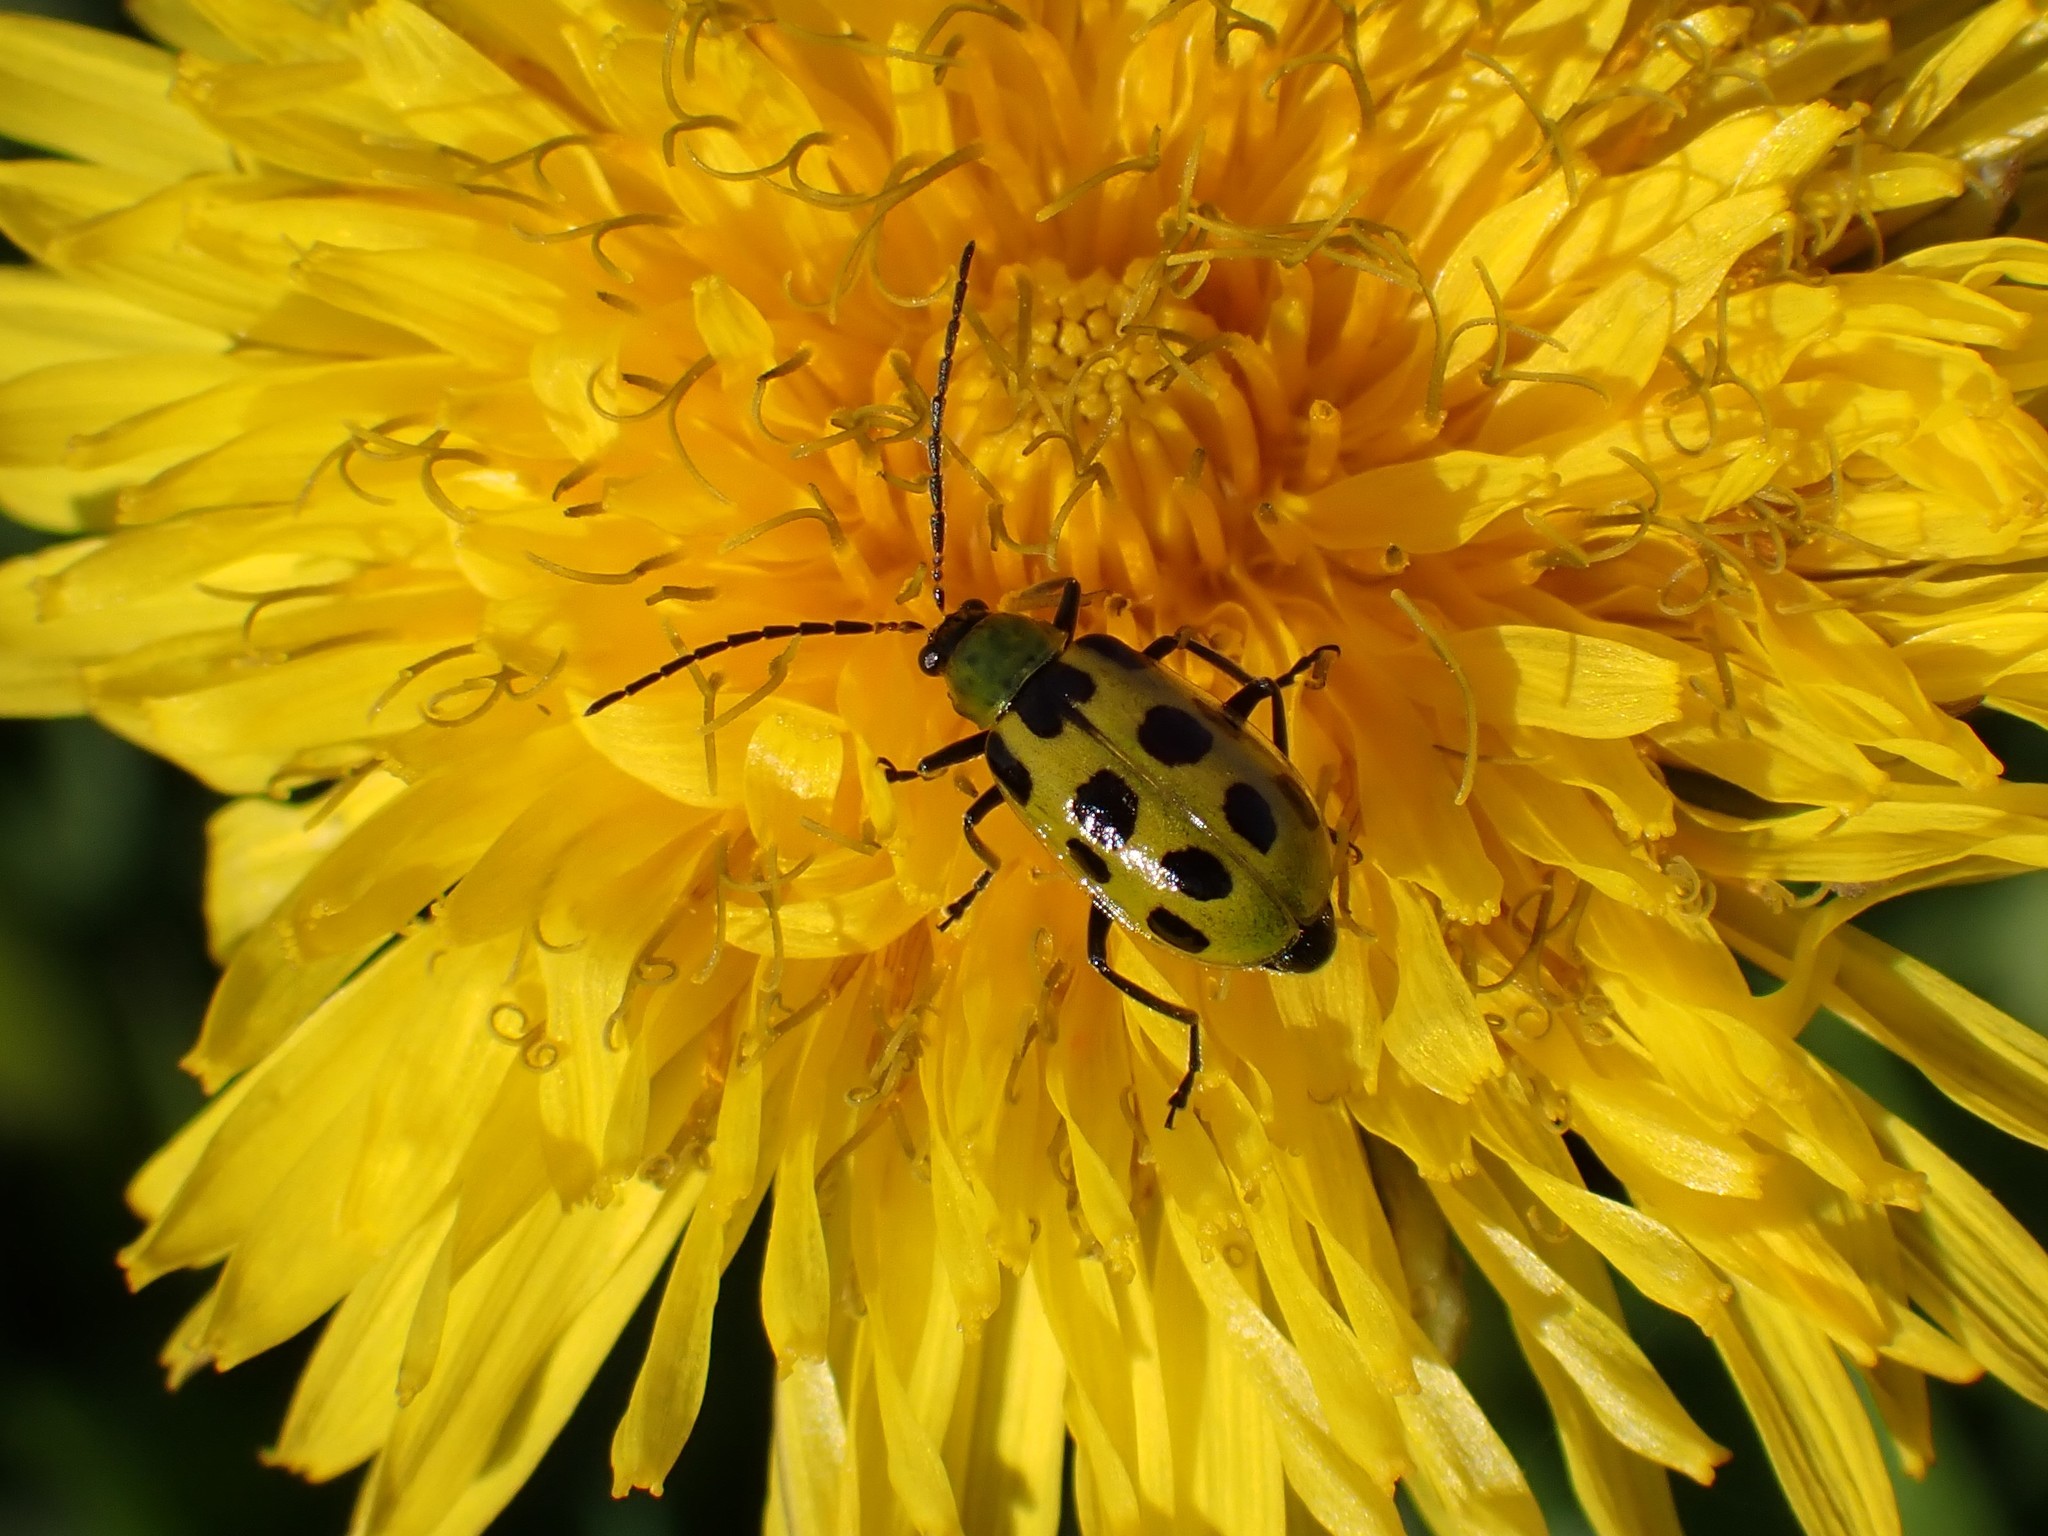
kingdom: Animalia
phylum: Arthropoda
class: Insecta
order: Coleoptera
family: Chrysomelidae
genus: Diabrotica
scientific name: Diabrotica undecimpunctata
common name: Spotted cucumber beetle
